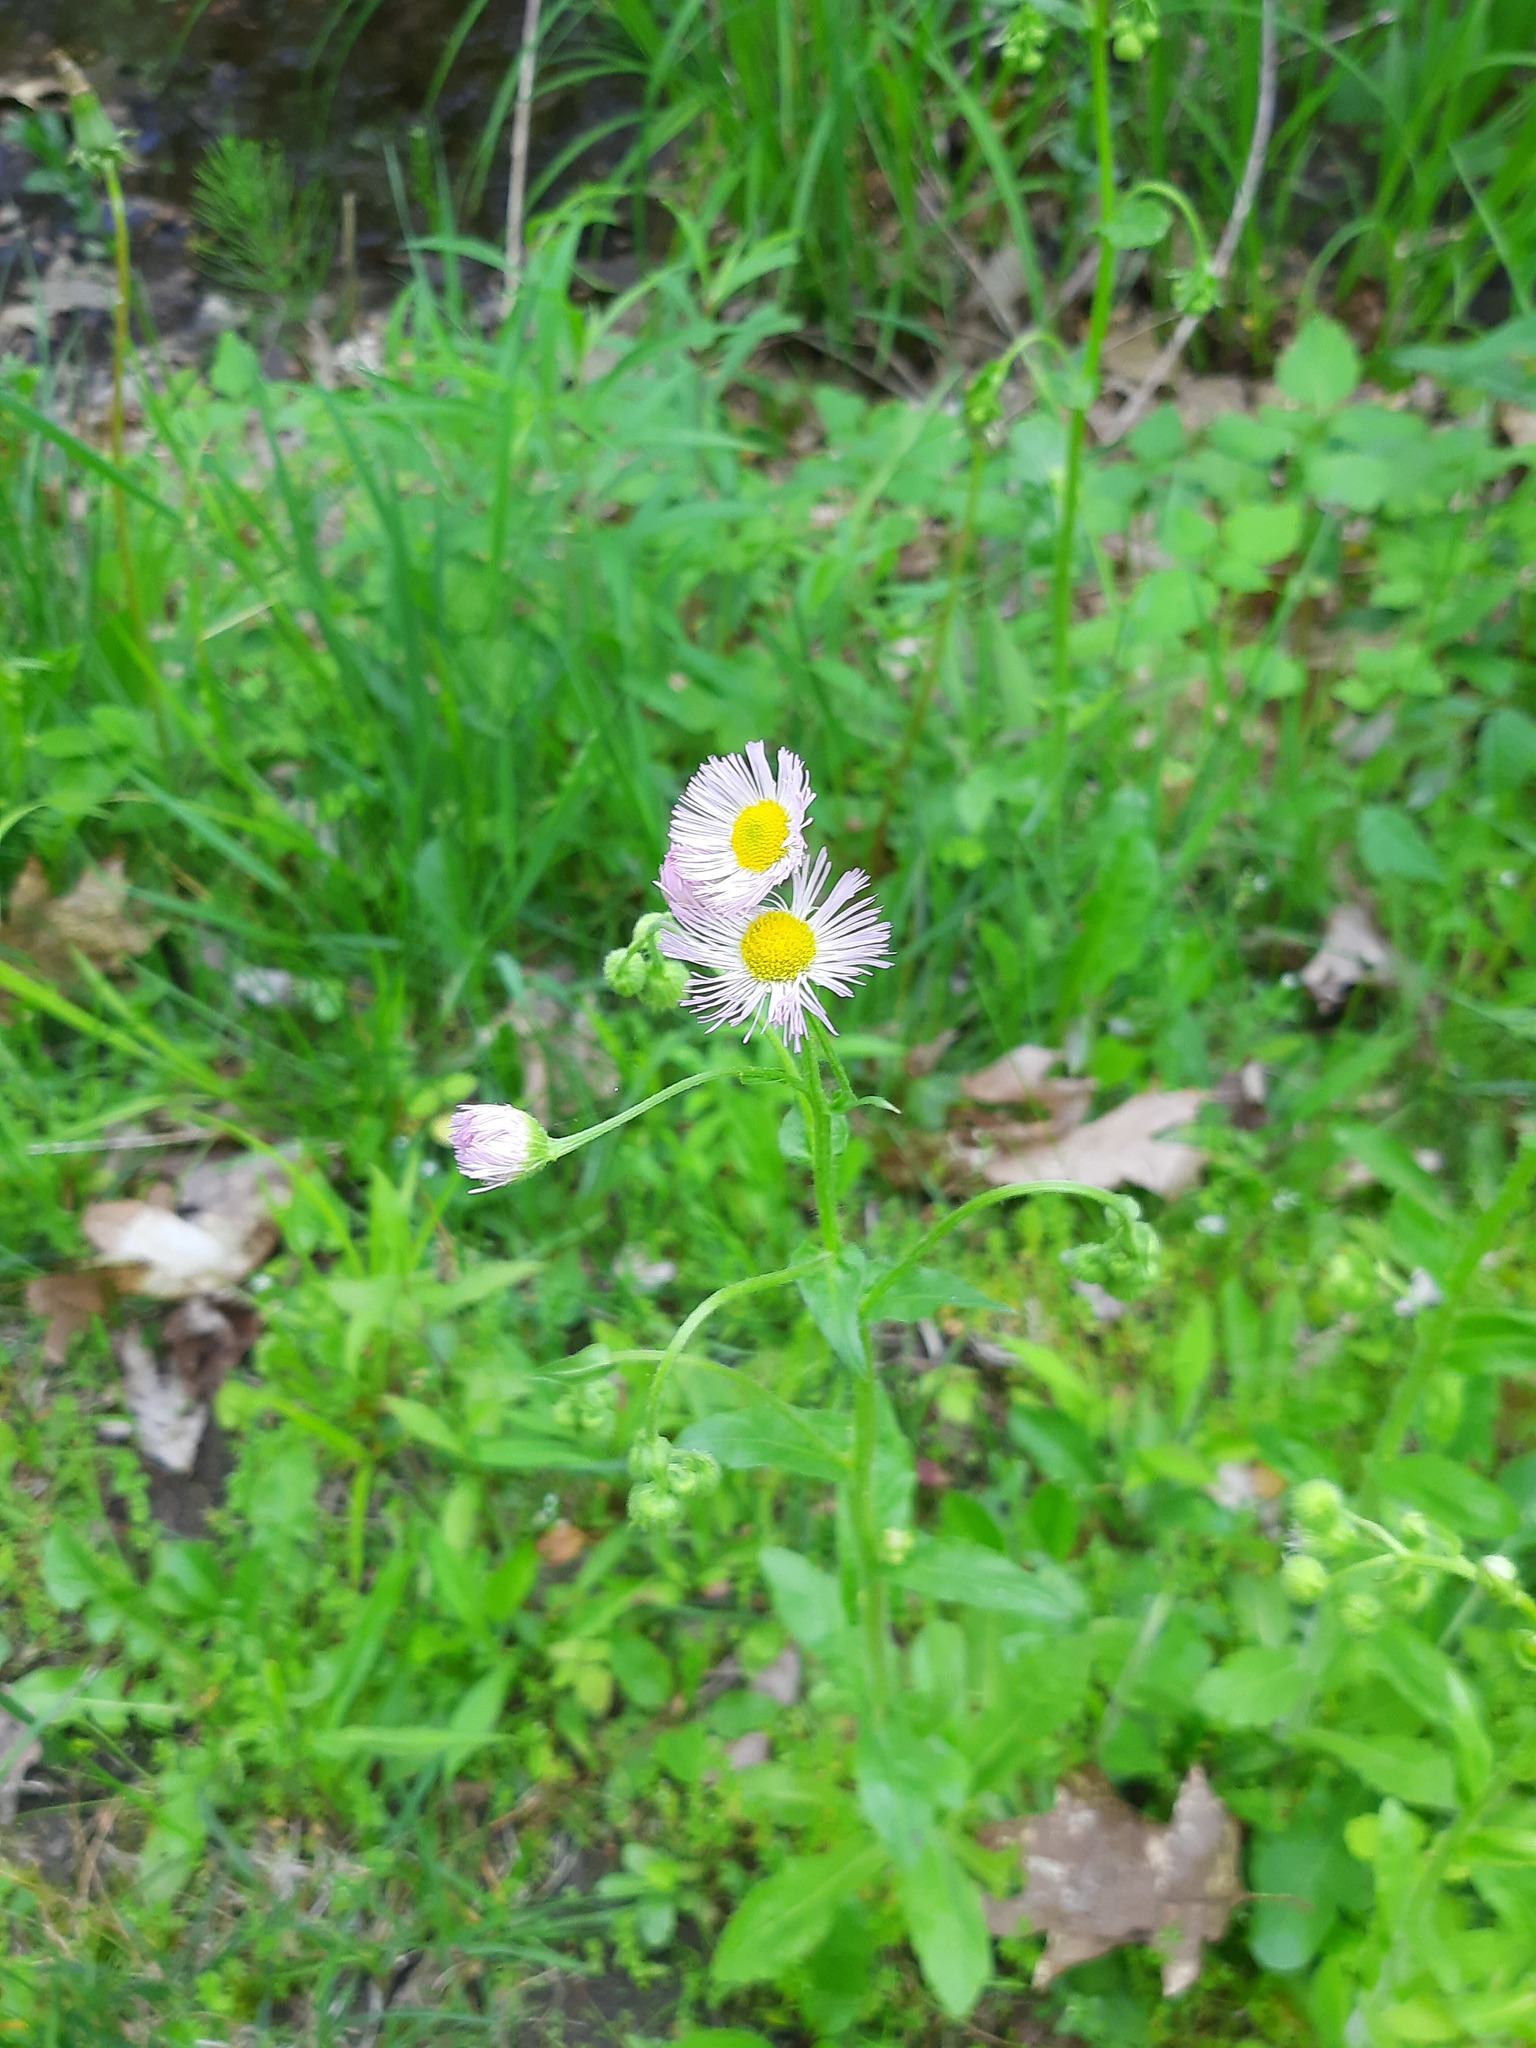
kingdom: Plantae
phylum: Tracheophyta
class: Magnoliopsida
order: Asterales
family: Asteraceae
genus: Erigeron
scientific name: Erigeron philadelphicus
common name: Robin's-plantain
